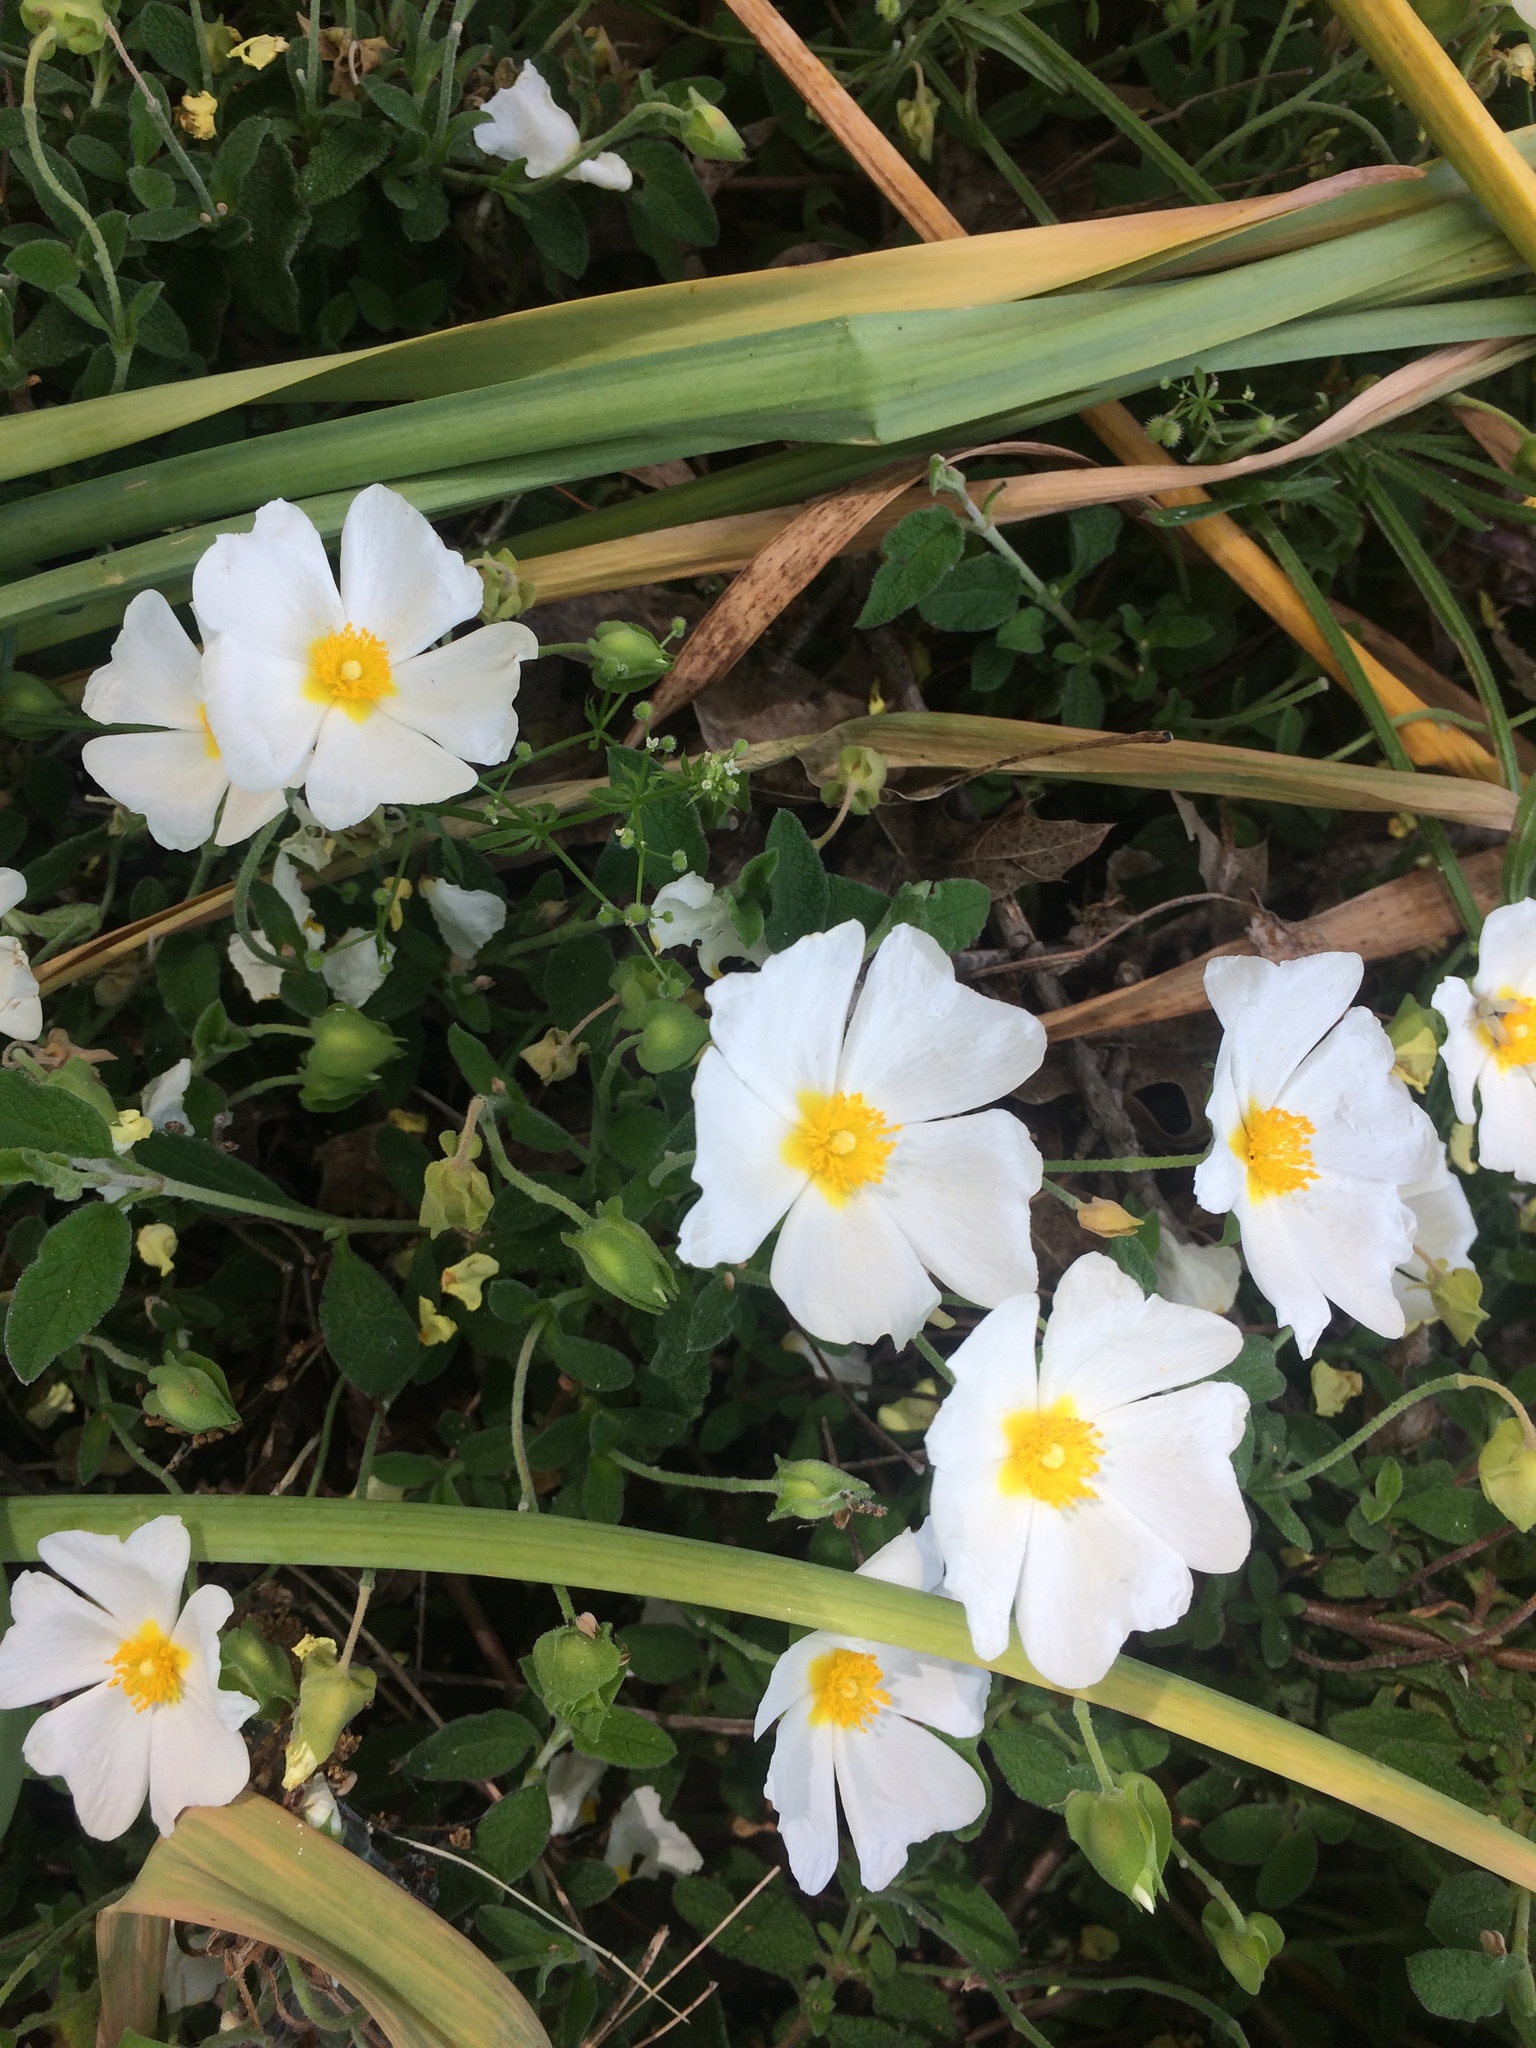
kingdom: Plantae
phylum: Tracheophyta
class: Magnoliopsida
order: Malvales
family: Cistaceae
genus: Cistus
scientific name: Cistus salviifolius
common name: Salvia cistus
